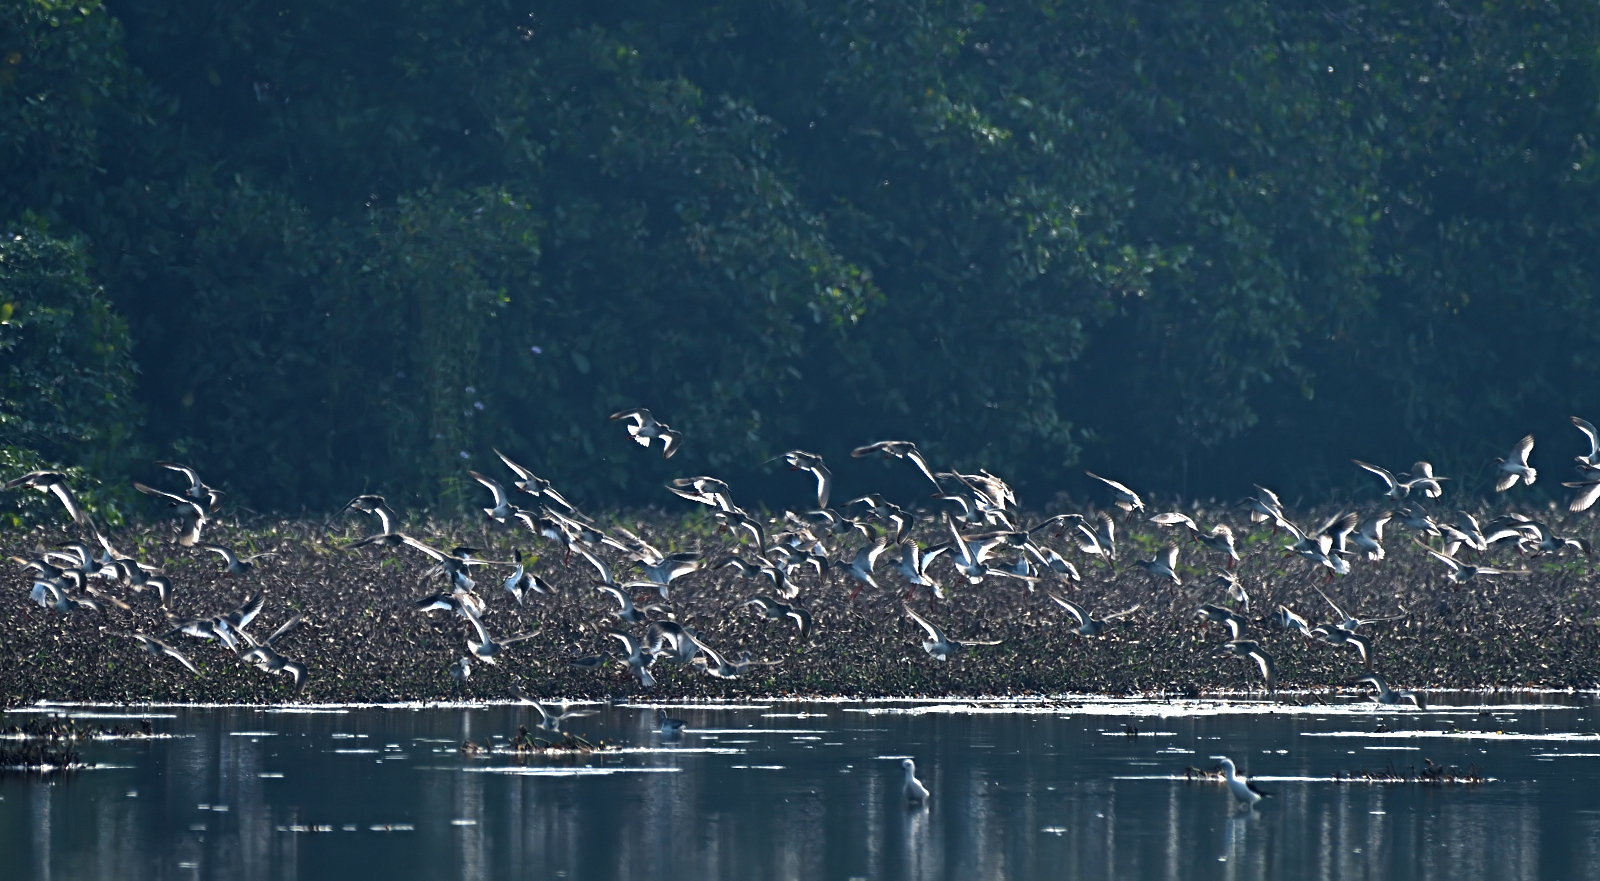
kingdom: Animalia
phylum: Chordata
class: Aves
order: Charadriiformes
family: Scolopacidae
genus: Tringa
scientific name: Tringa totanus
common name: Common redshank
